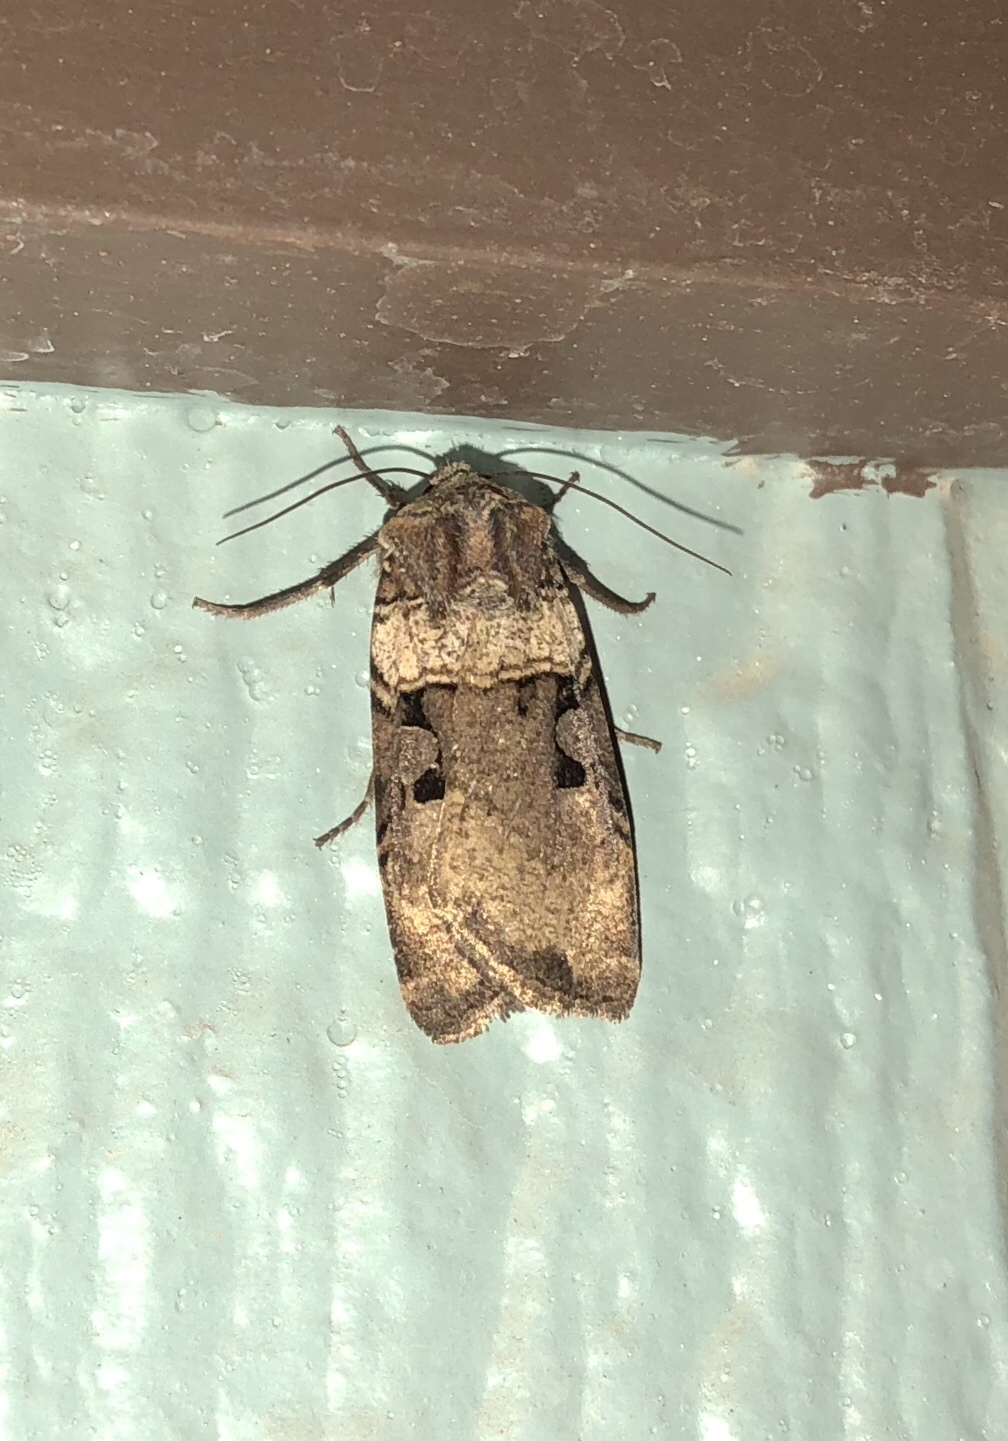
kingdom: Animalia
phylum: Arthropoda
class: Insecta
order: Lepidoptera
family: Noctuidae
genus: Richia
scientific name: Richia serano
